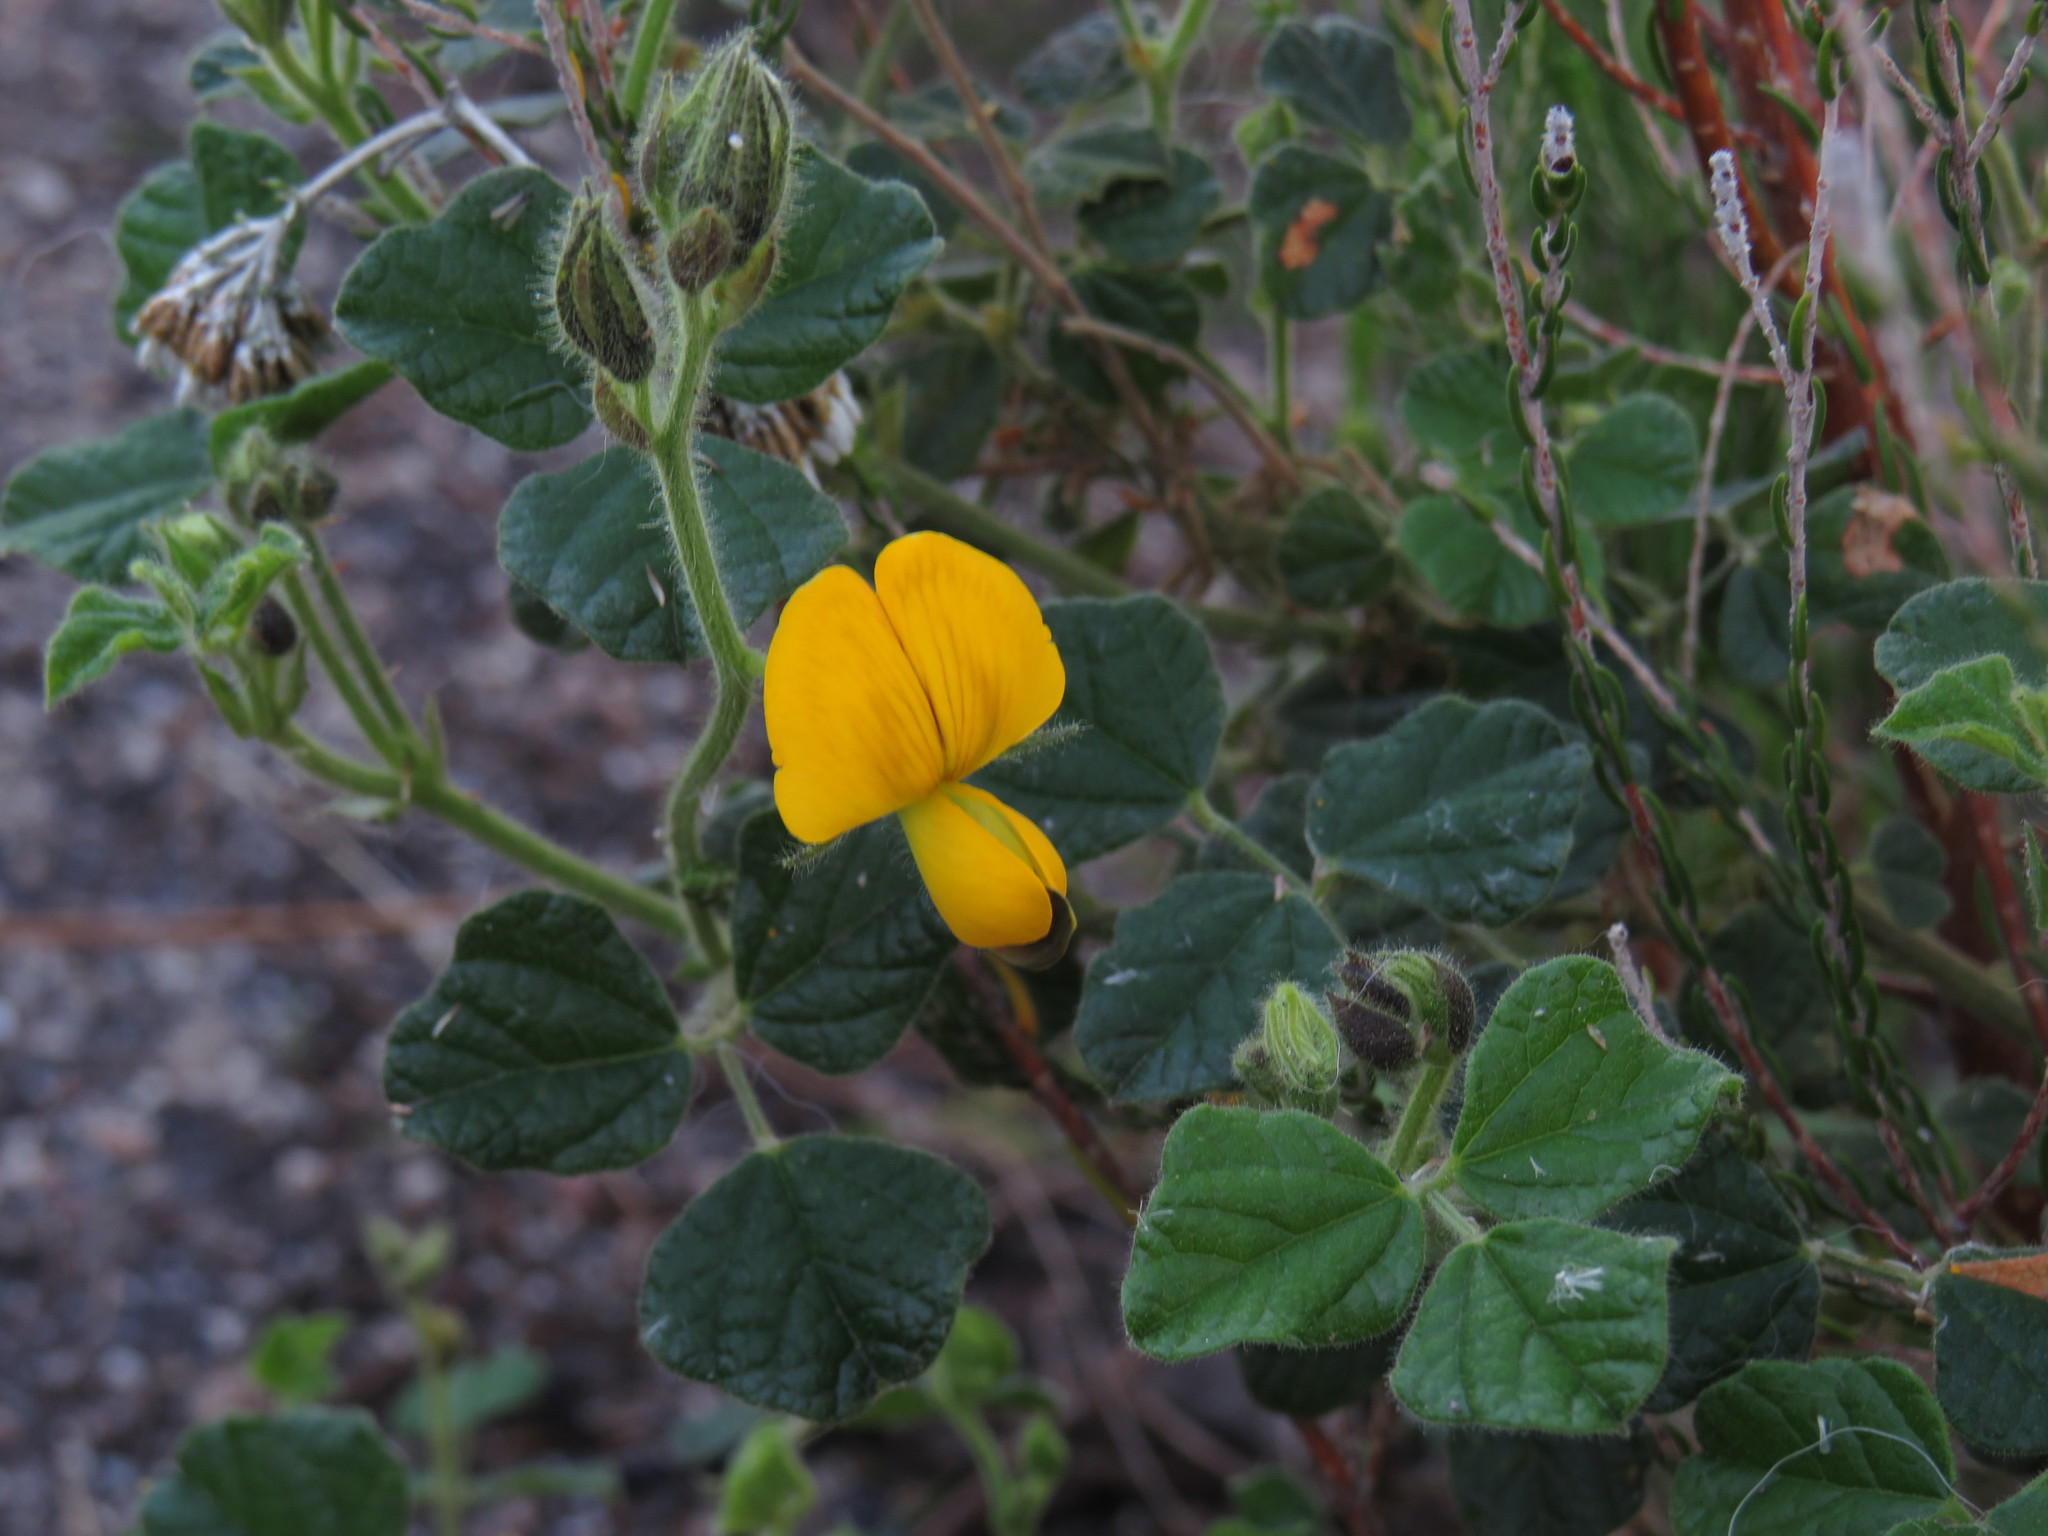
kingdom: Plantae
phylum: Tracheophyta
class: Magnoliopsida
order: Fabales
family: Fabaceae
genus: Bolusafra
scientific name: Bolusafra bituminosa
